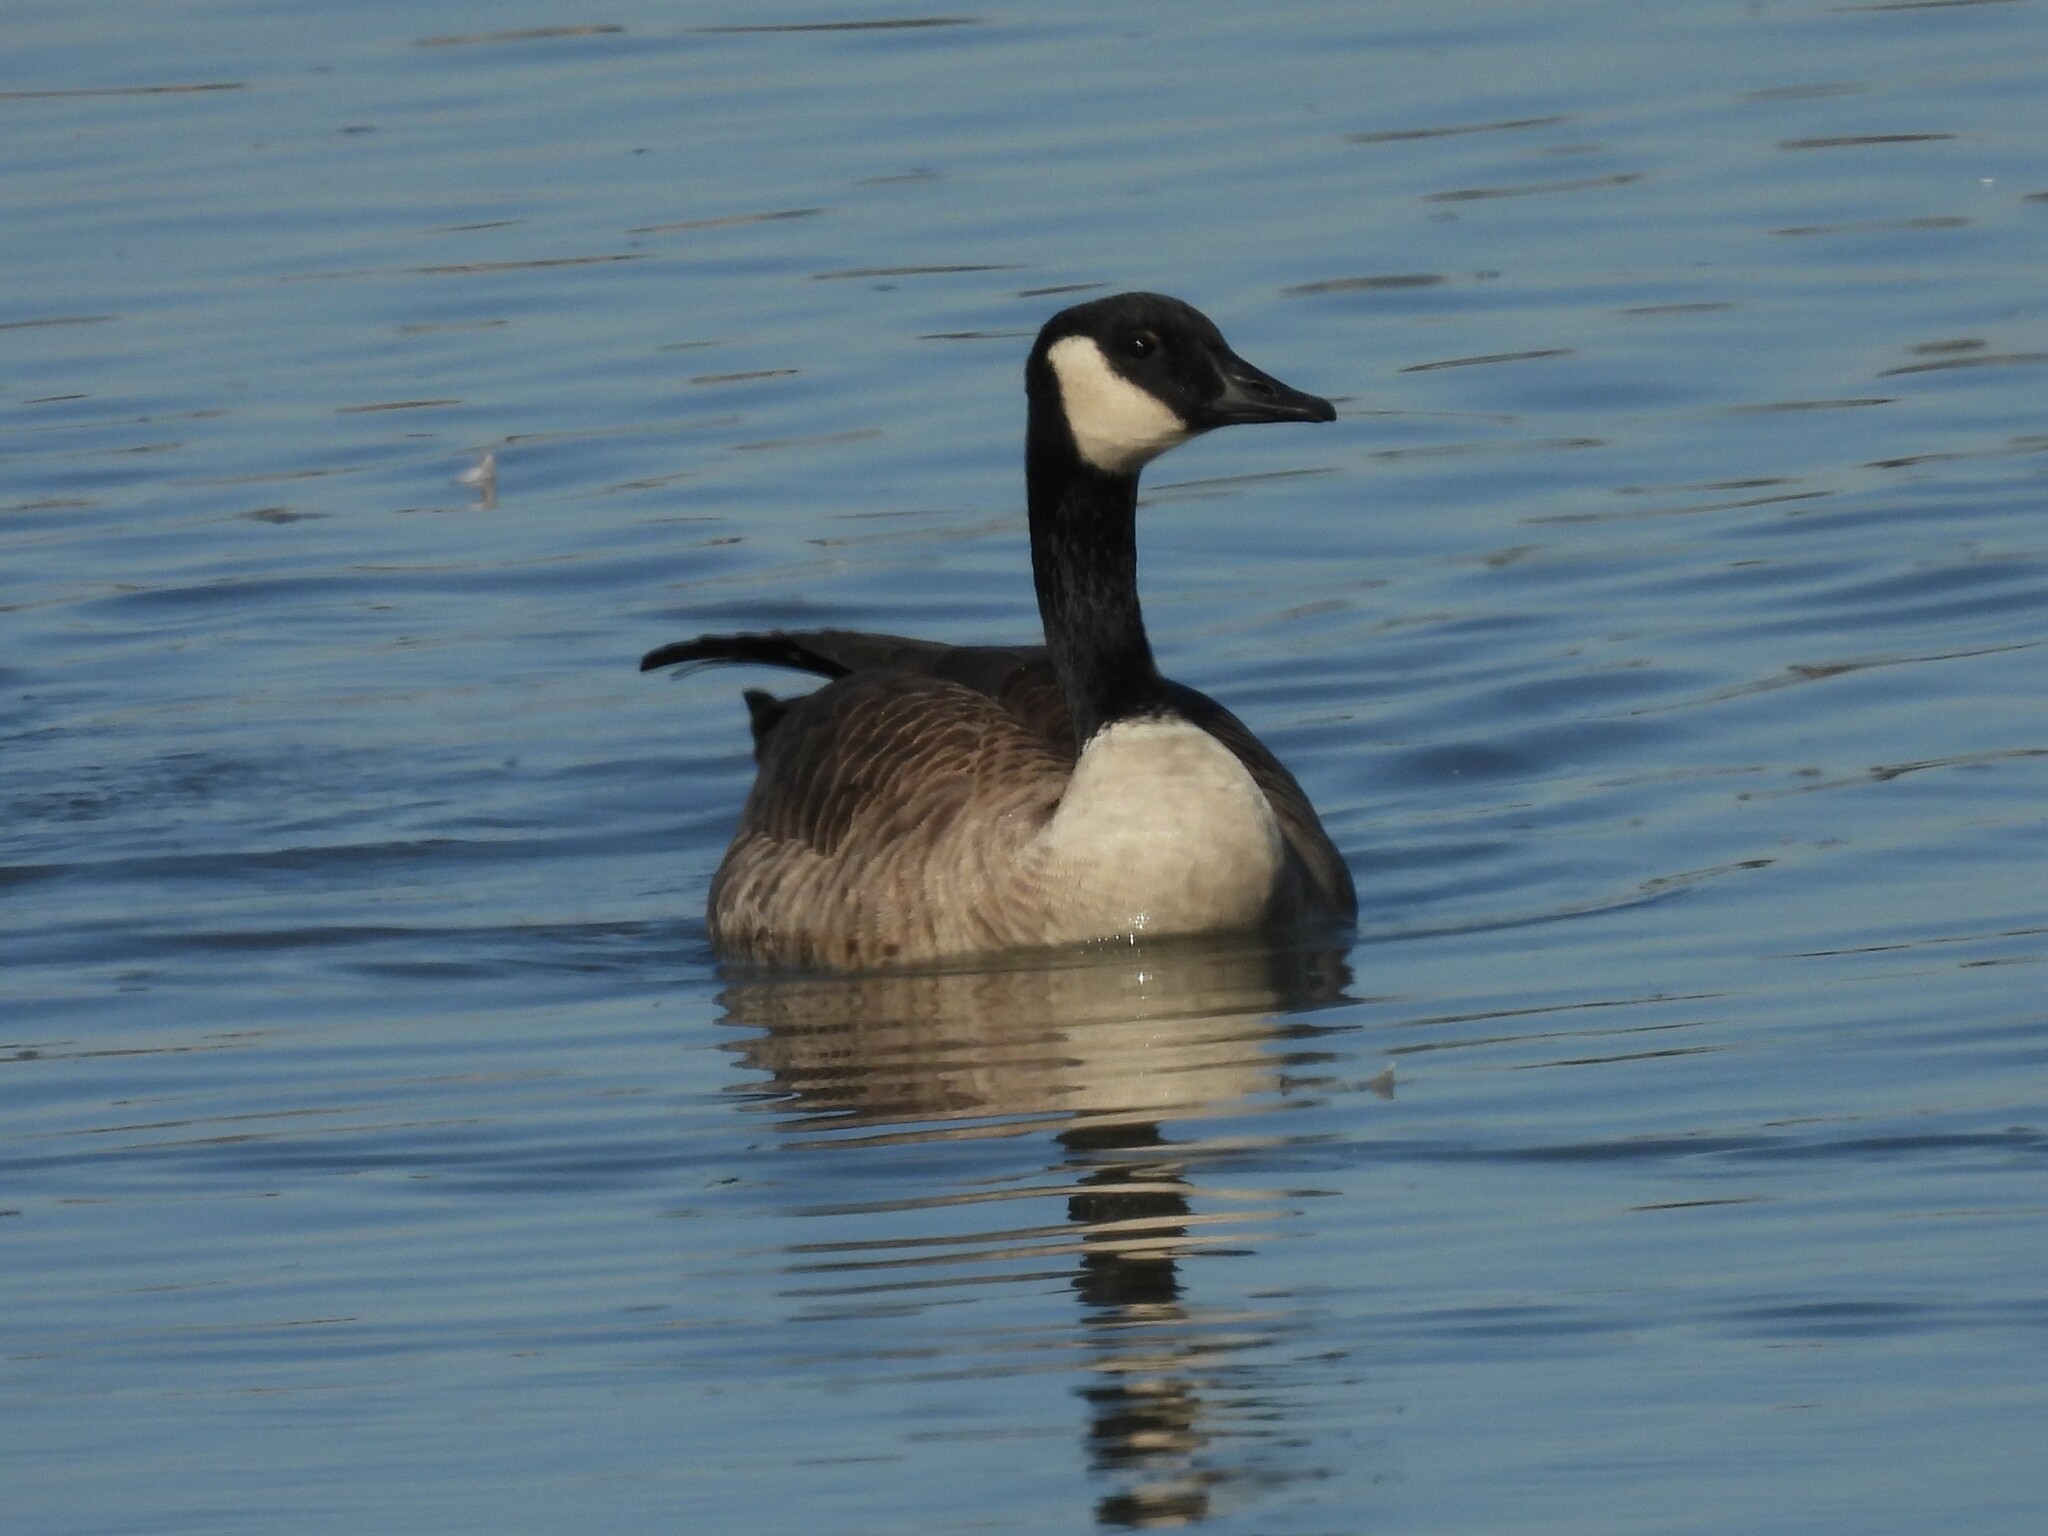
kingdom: Animalia
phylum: Chordata
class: Aves
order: Anseriformes
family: Anatidae
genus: Branta
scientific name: Branta canadensis
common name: Canada goose
